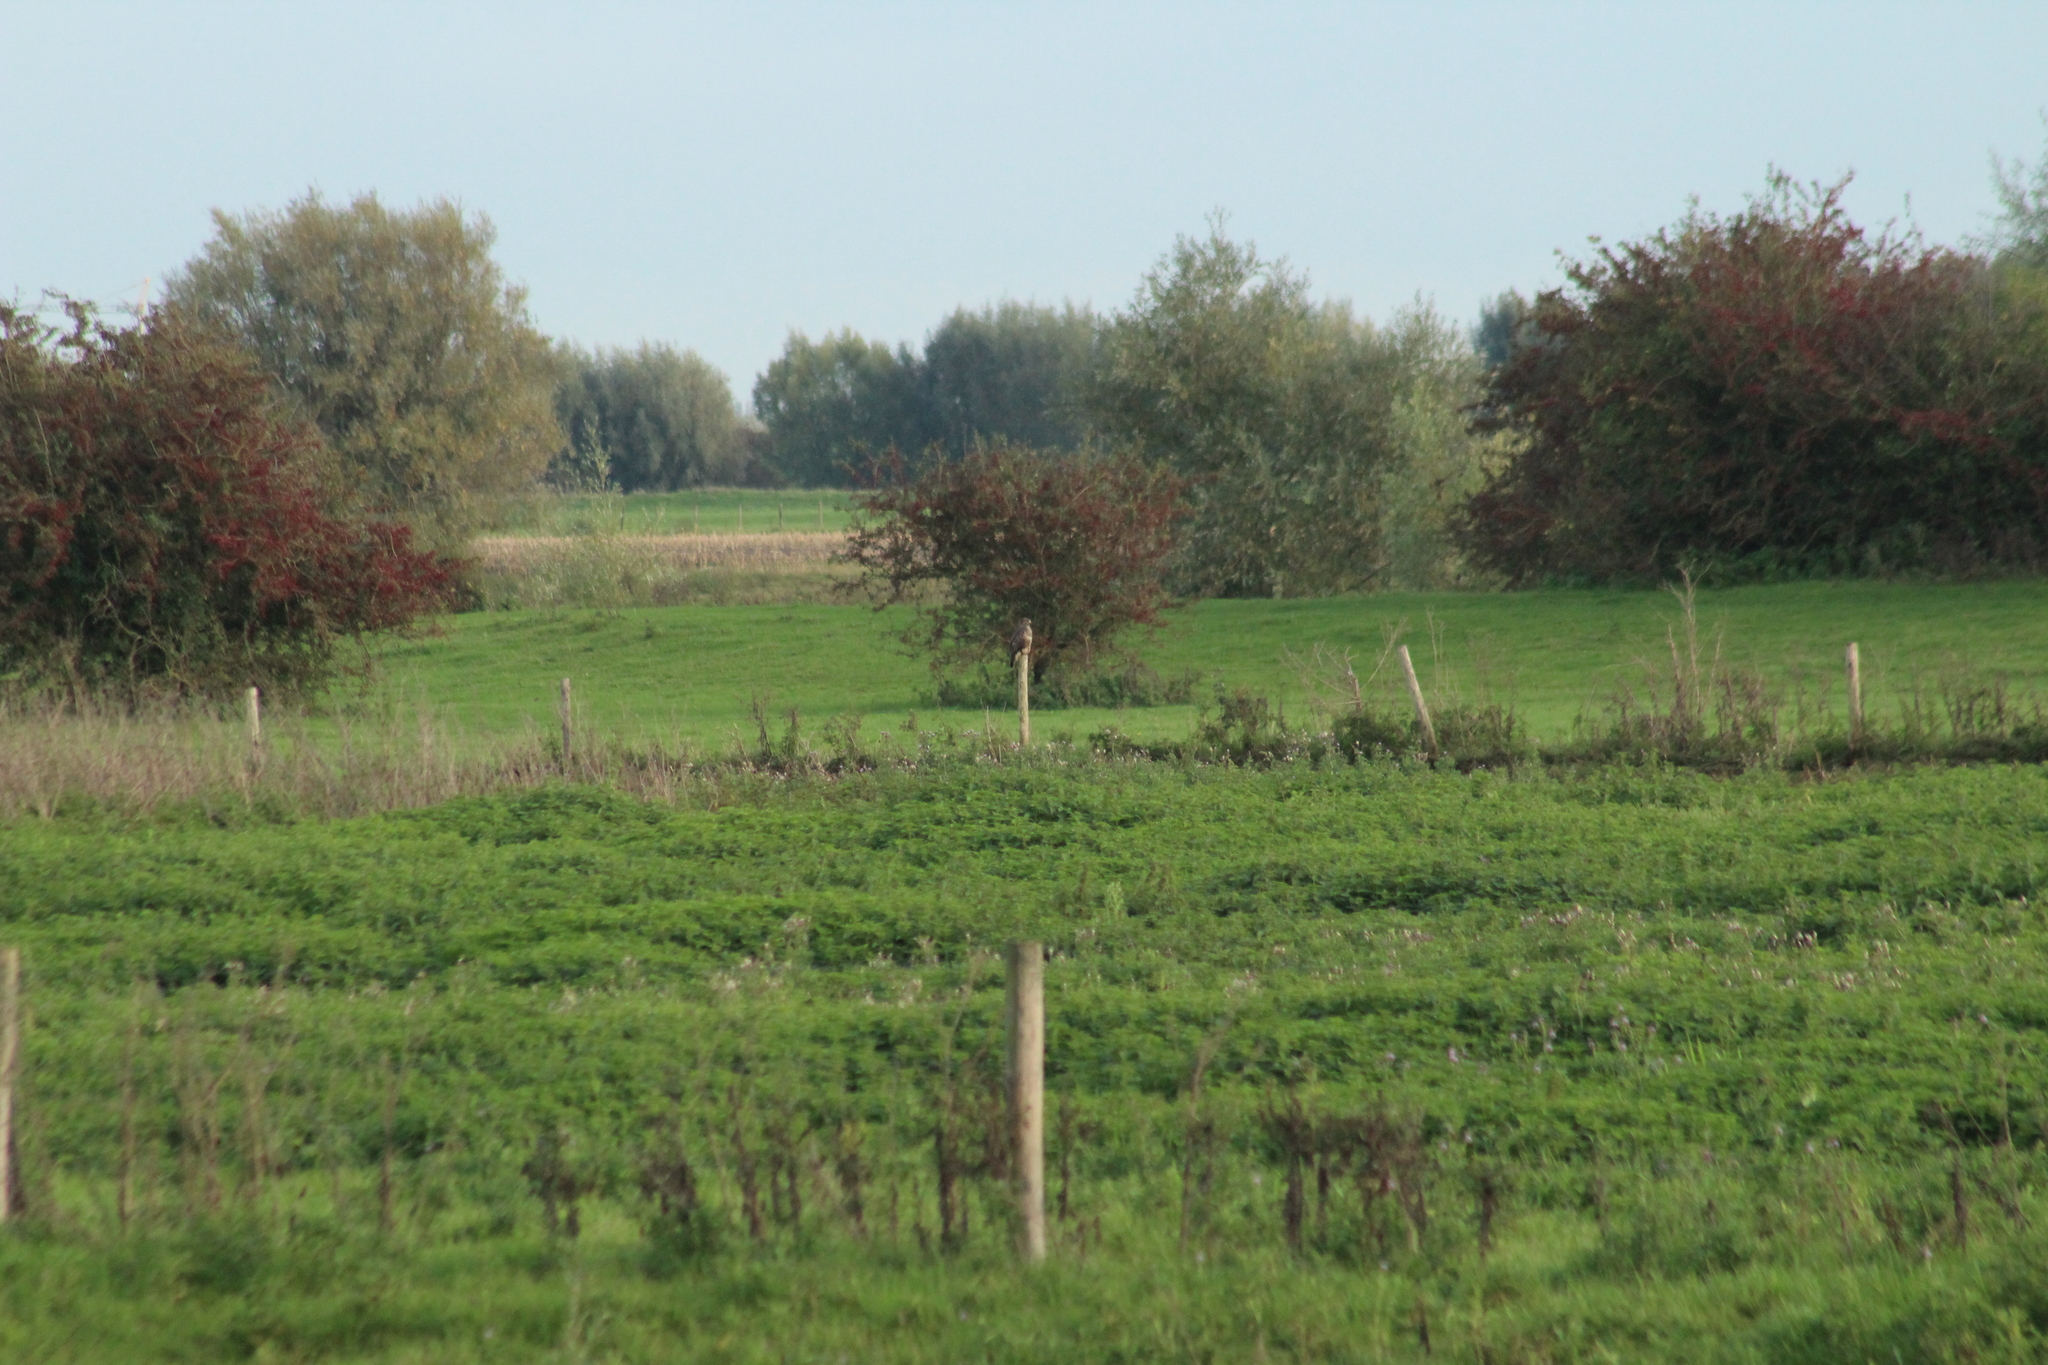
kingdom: Animalia
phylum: Chordata
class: Aves
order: Accipitriformes
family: Accipitridae
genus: Buteo
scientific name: Buteo buteo
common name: Common buzzard
